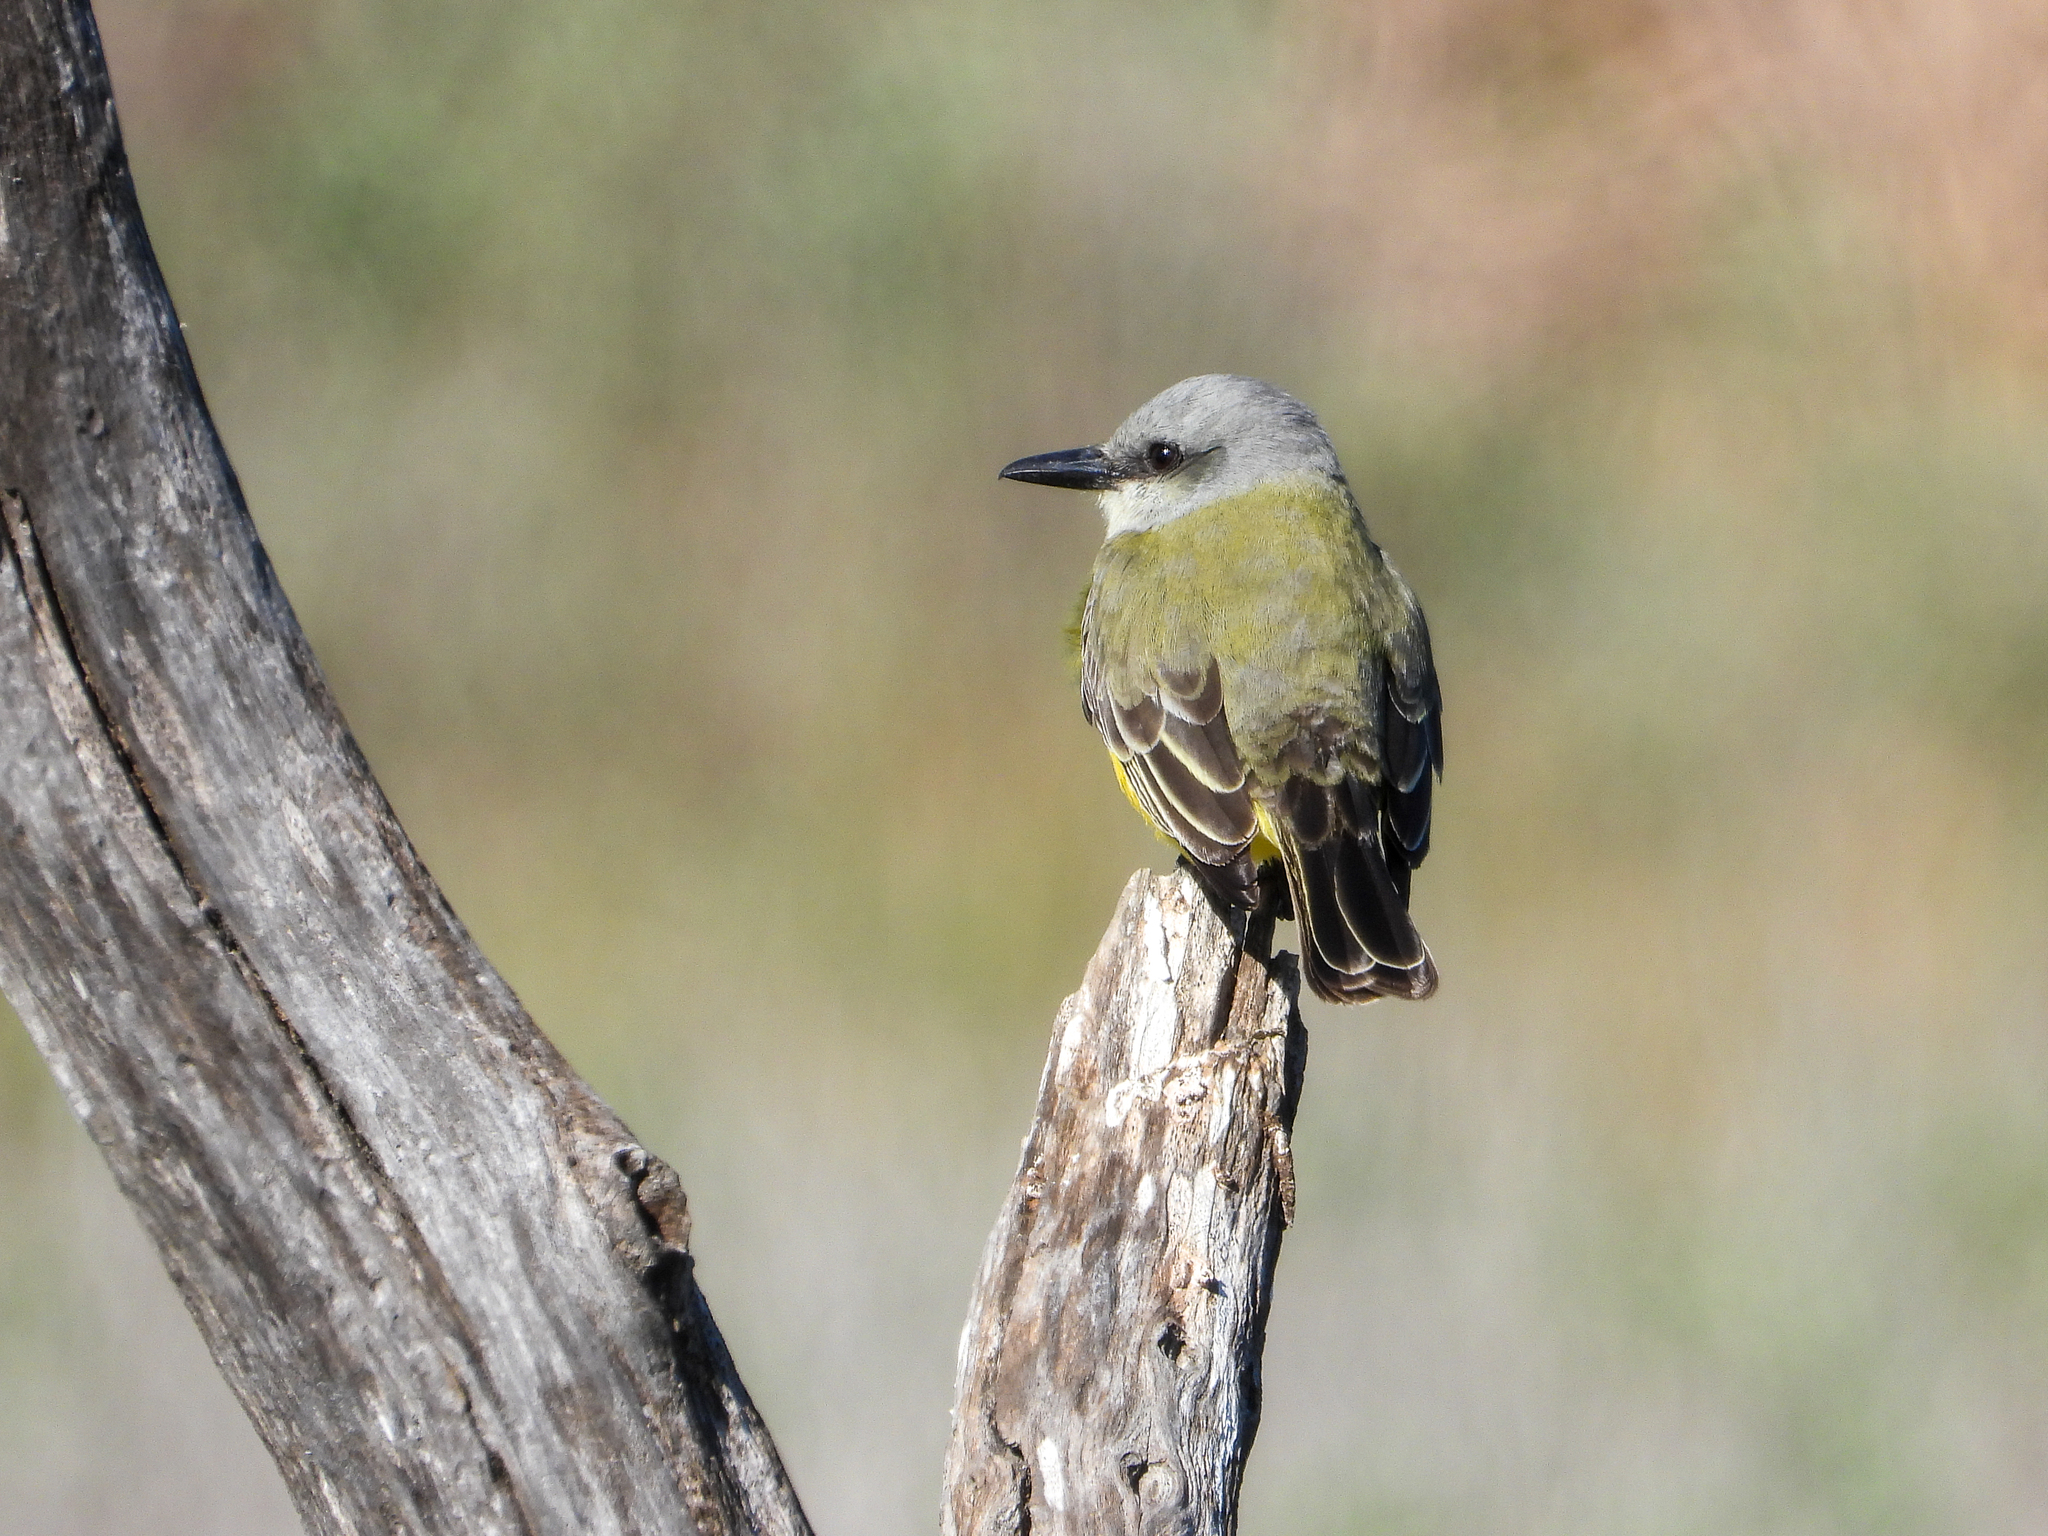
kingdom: Animalia
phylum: Chordata
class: Aves
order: Passeriformes
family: Tyrannidae
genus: Tyrannus
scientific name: Tyrannus melancholicus
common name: Tropical kingbird
